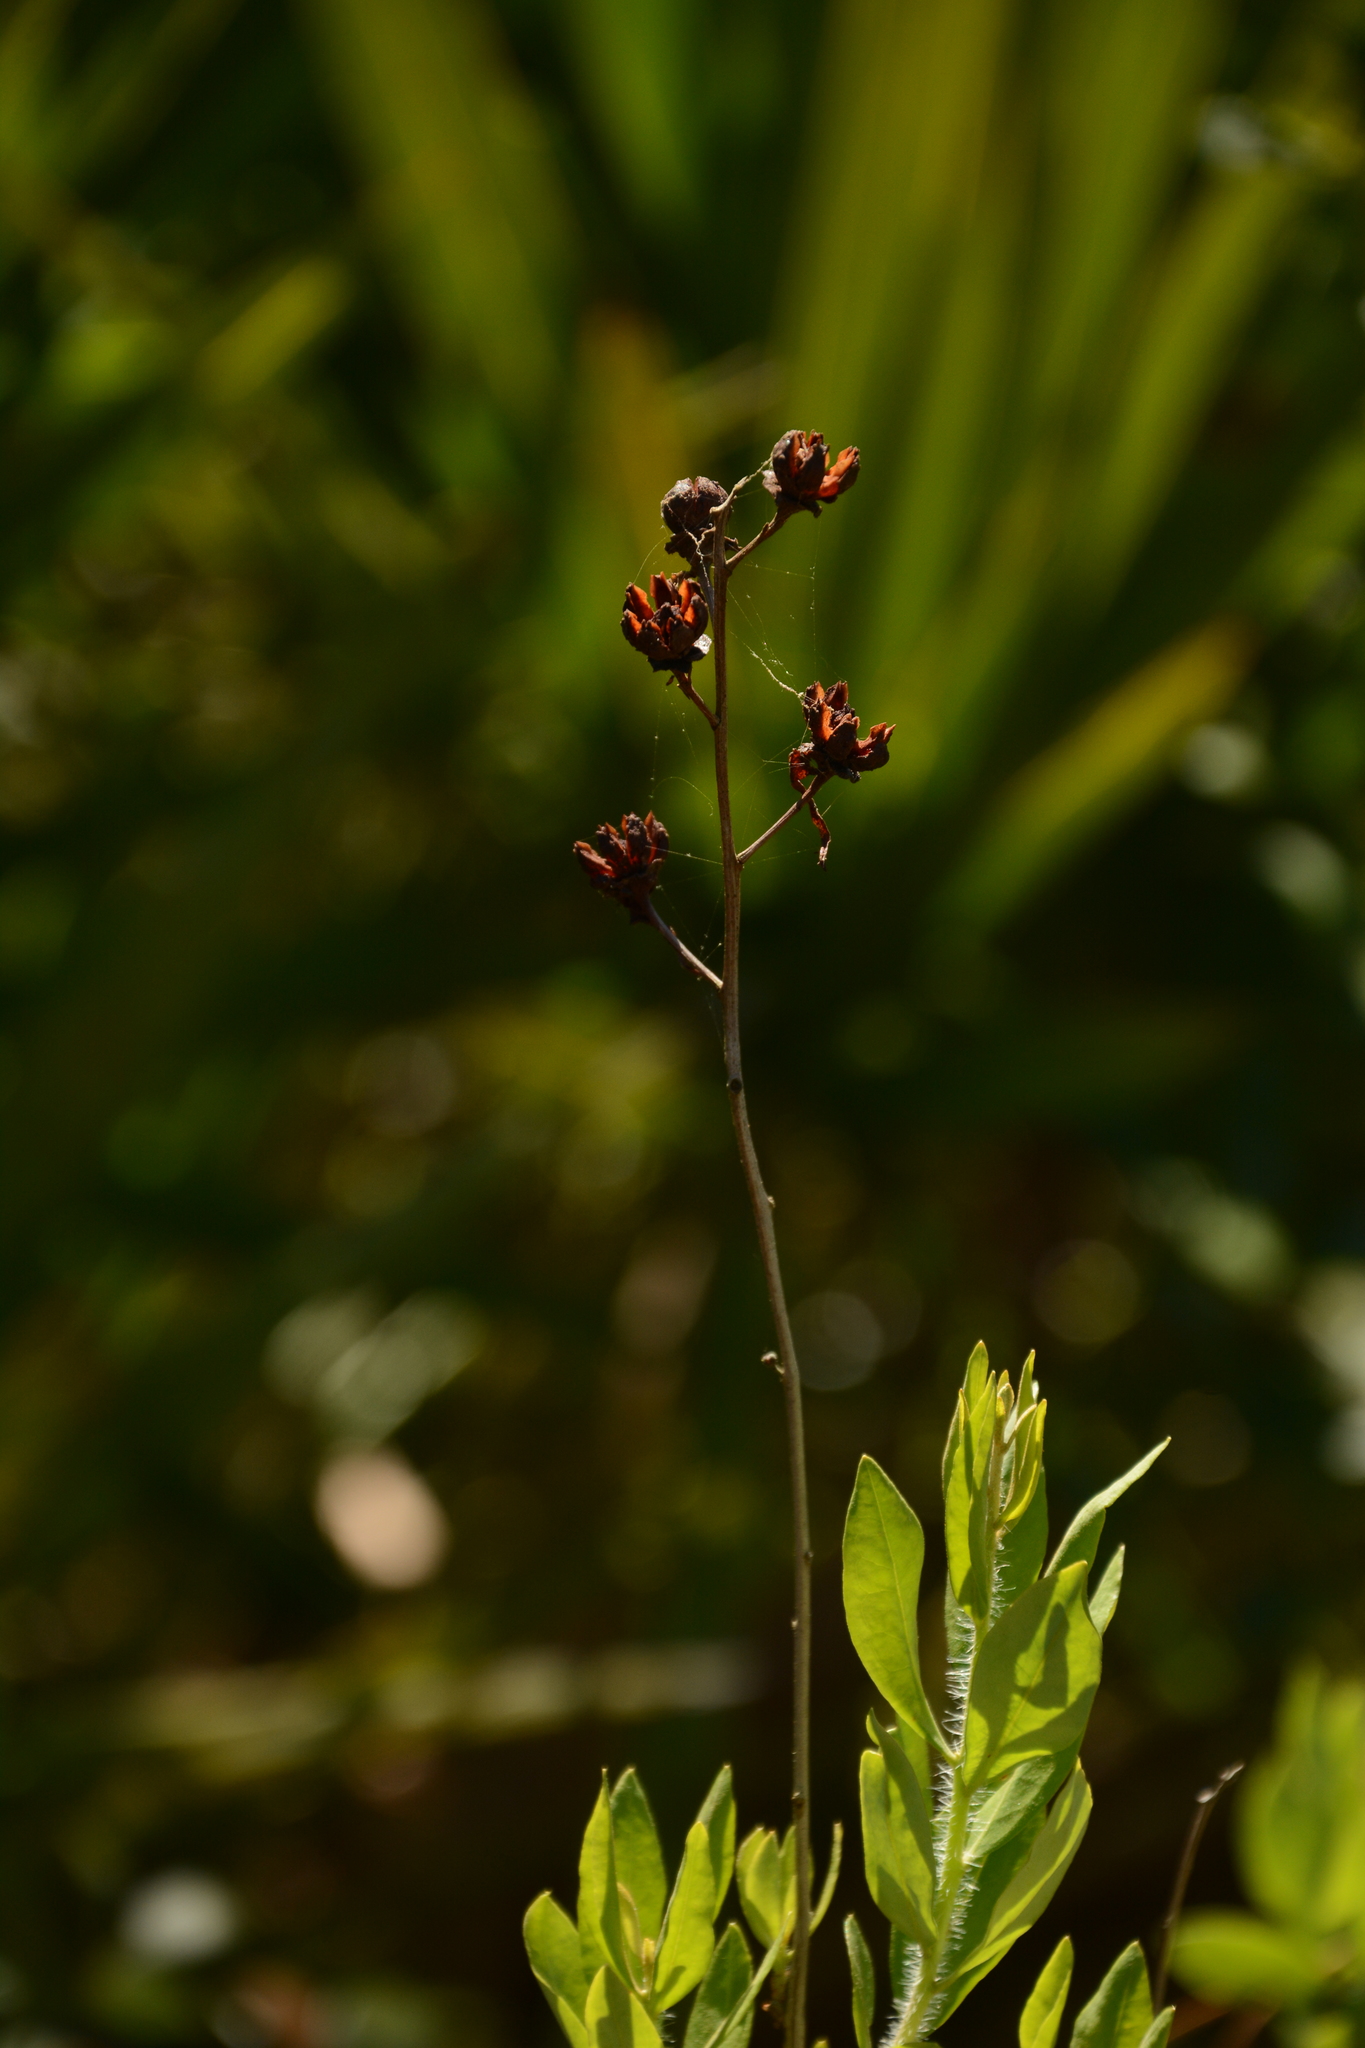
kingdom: Plantae
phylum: Tracheophyta
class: Magnoliopsida
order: Ericales
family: Ericaceae
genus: Bejaria
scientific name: Bejaria racemosa
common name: Tarflower
